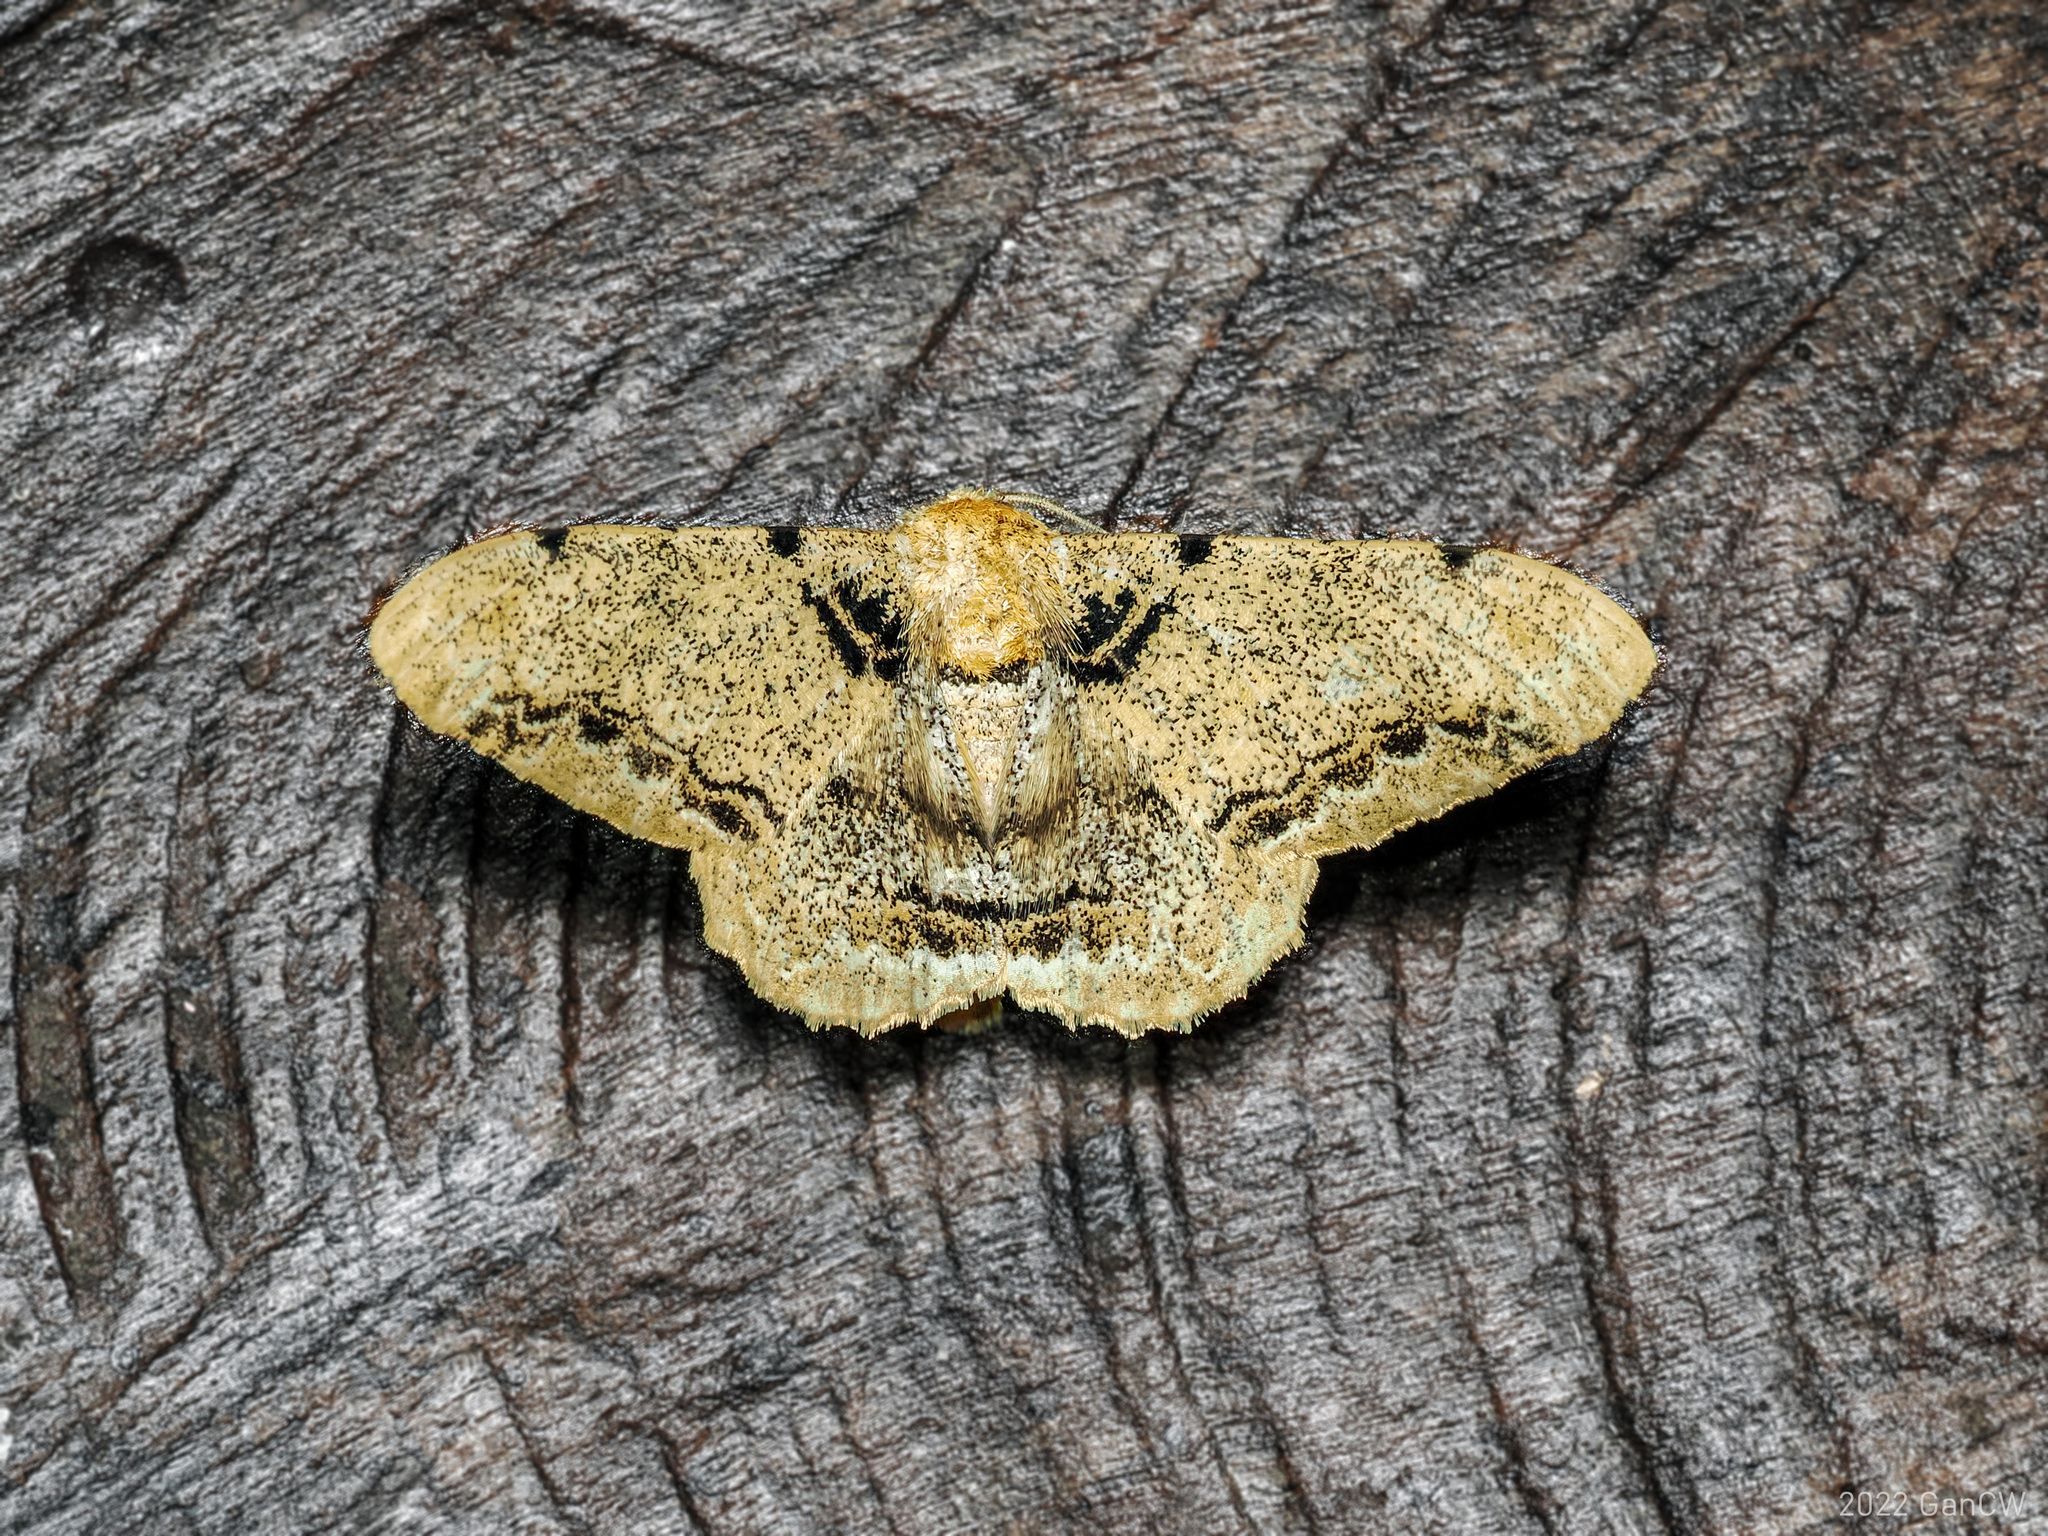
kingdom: Animalia
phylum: Arthropoda
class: Insecta
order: Lepidoptera
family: Geometridae
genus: Biston
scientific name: Biston insularis
